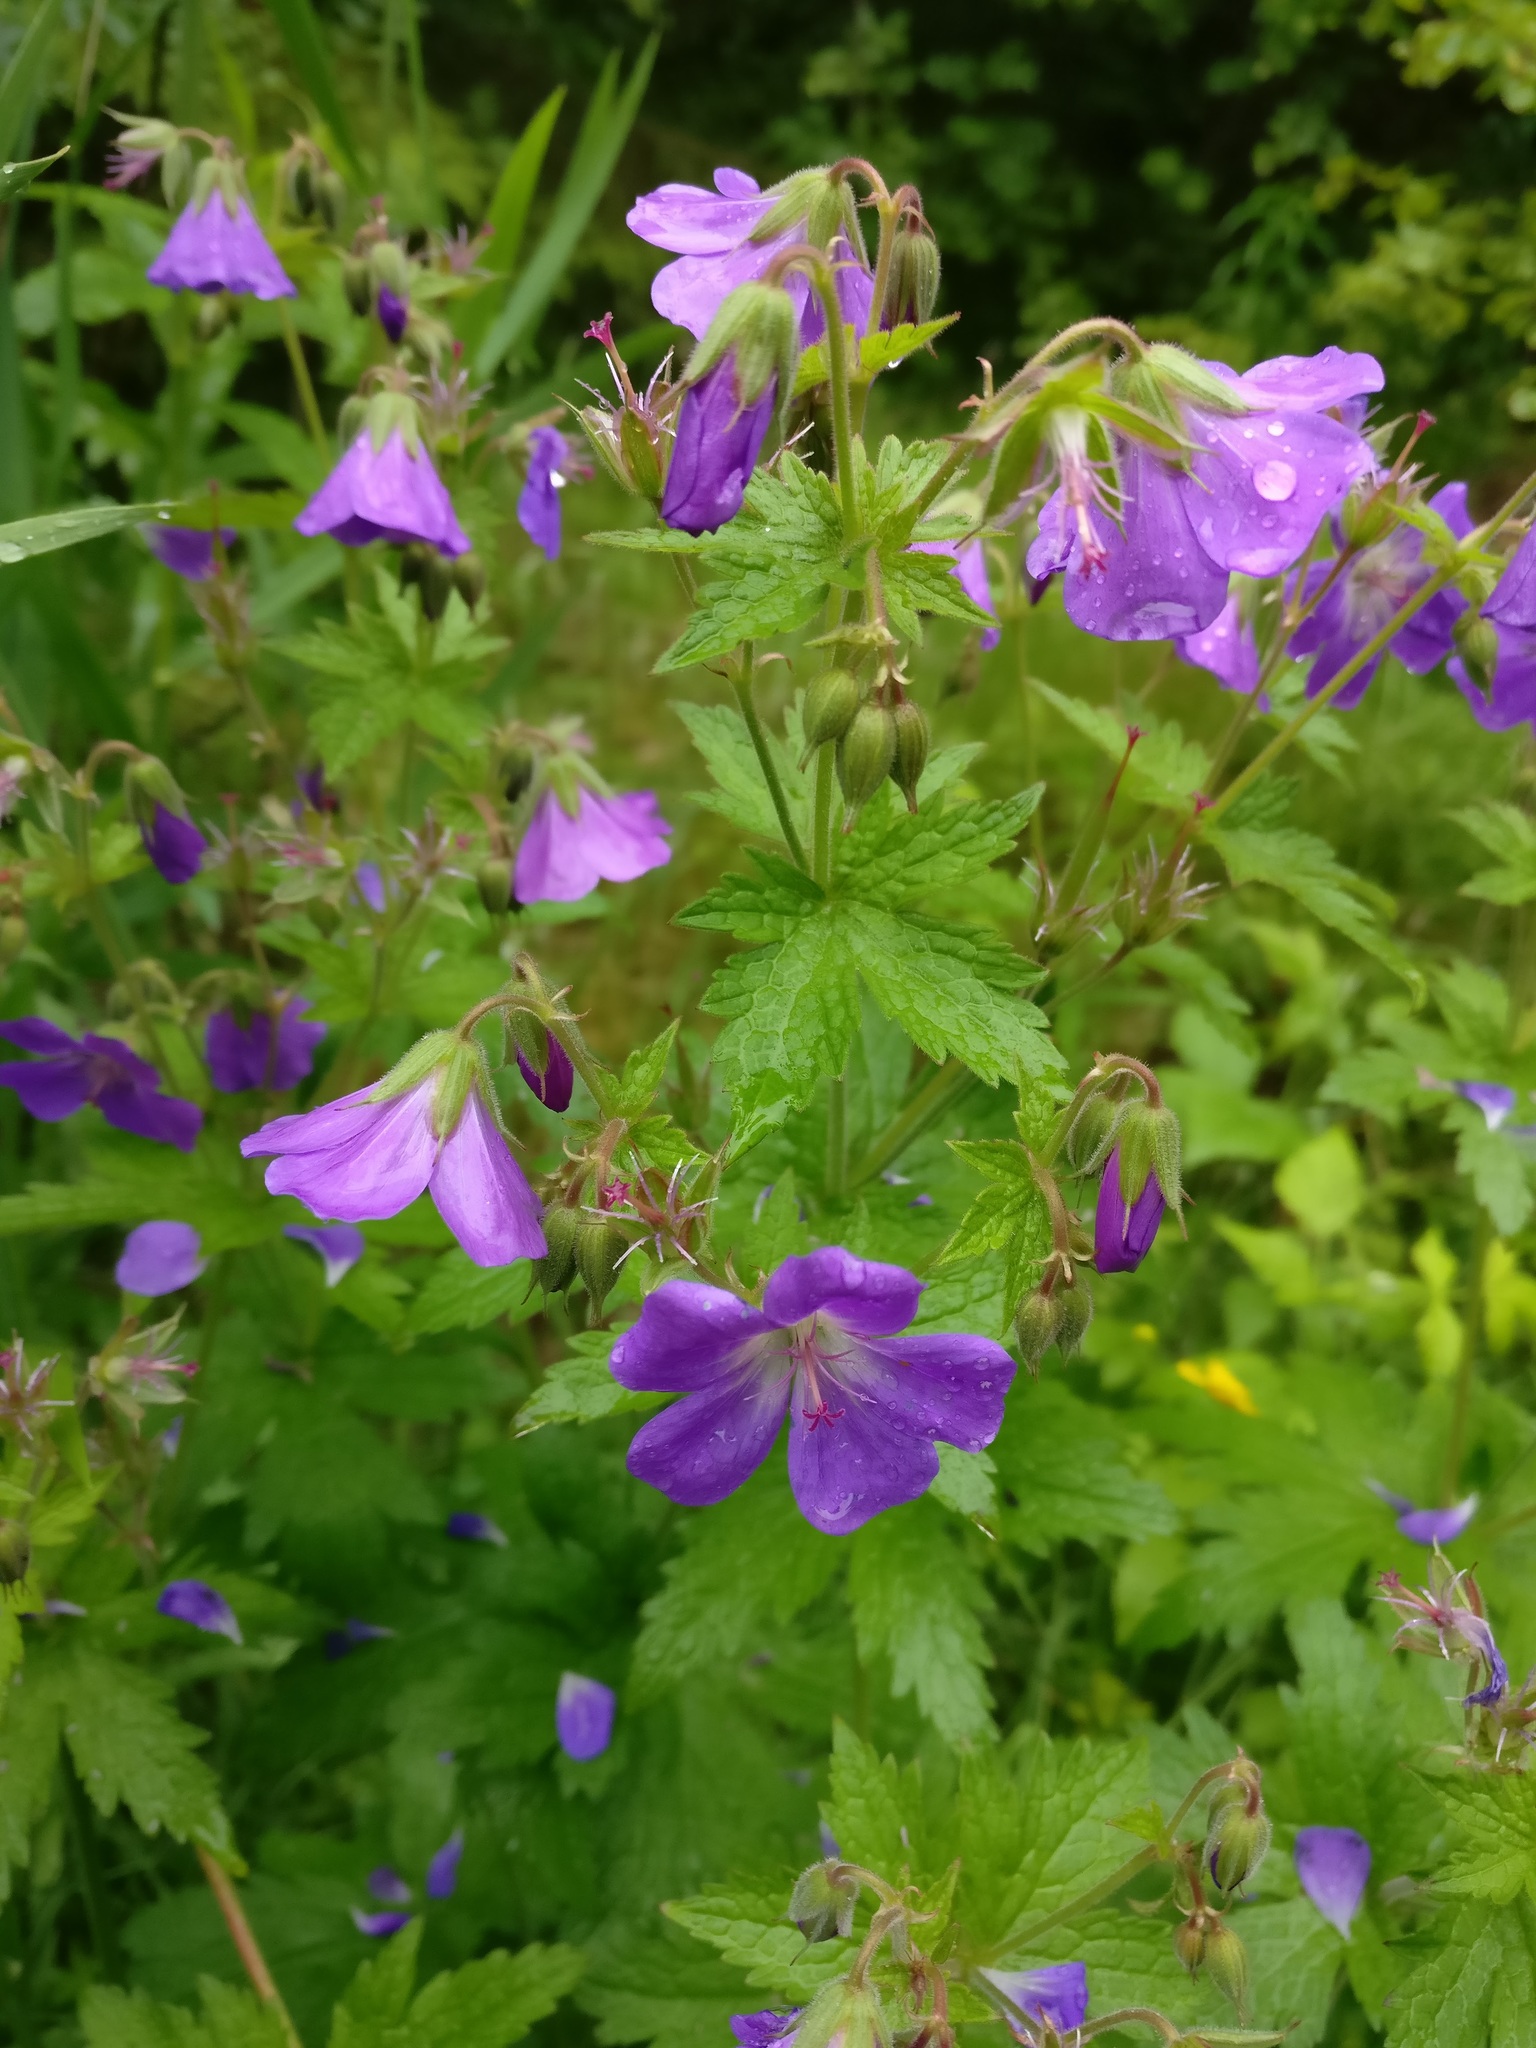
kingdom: Plantae
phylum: Tracheophyta
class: Magnoliopsida
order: Geraniales
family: Geraniaceae
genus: Geranium
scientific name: Geranium sylvaticum
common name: Wood crane's-bill
